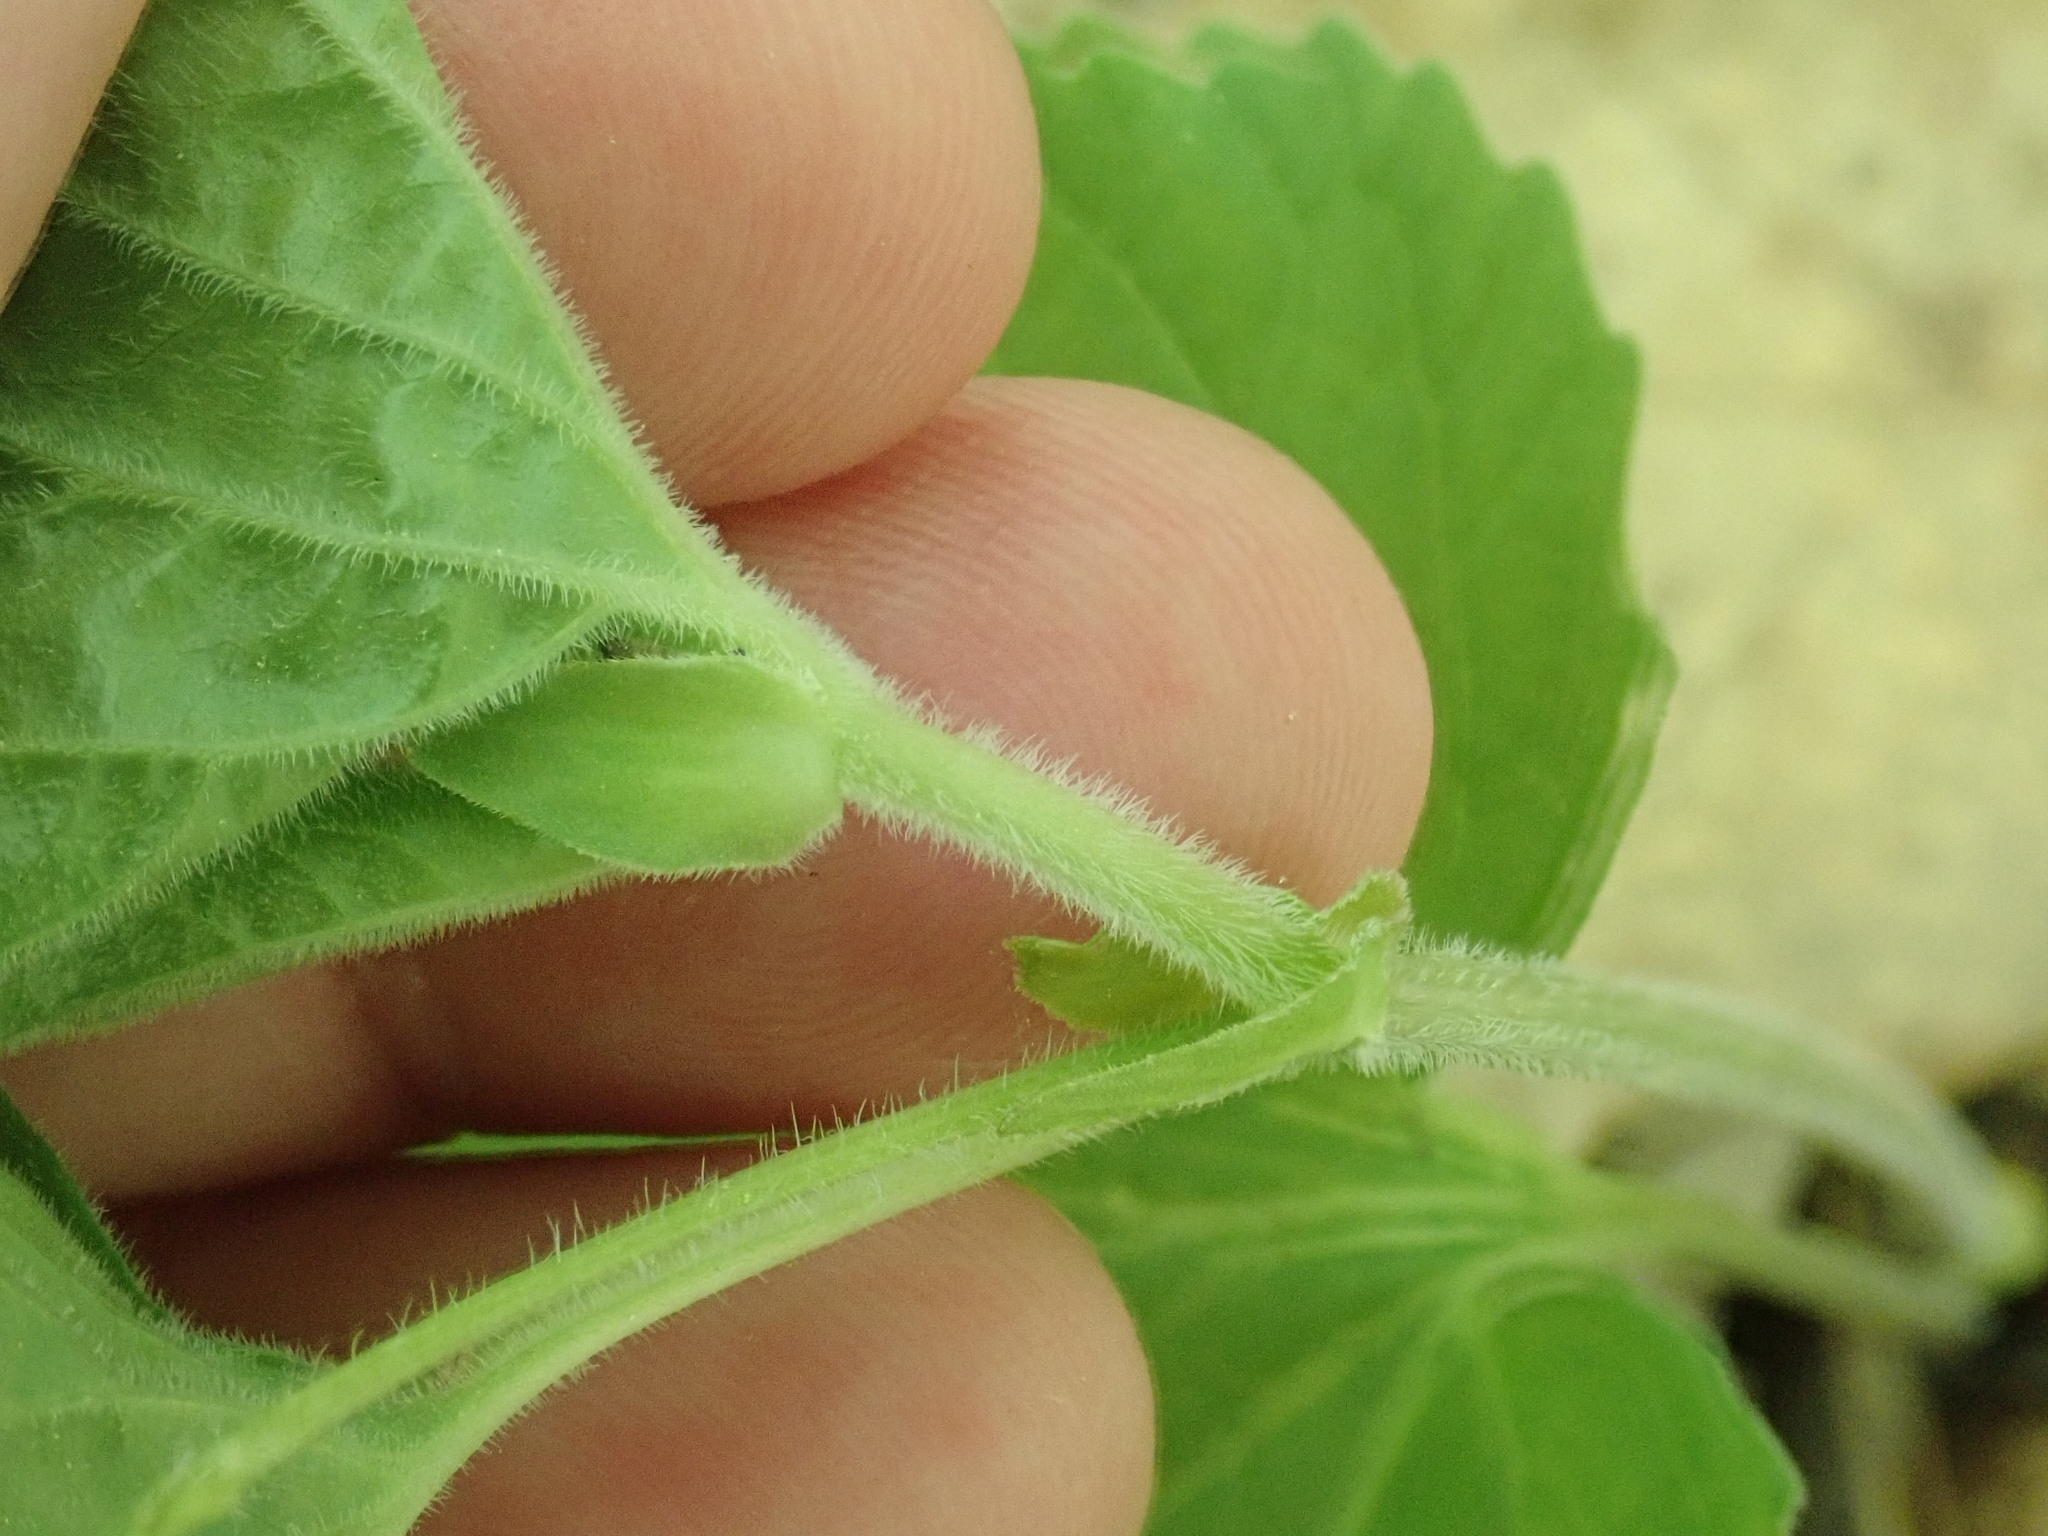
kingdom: Plantae
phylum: Tracheophyta
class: Magnoliopsida
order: Malpighiales
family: Violaceae
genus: Viola
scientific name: Viola eriocarpa
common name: Smooth yellow violet
